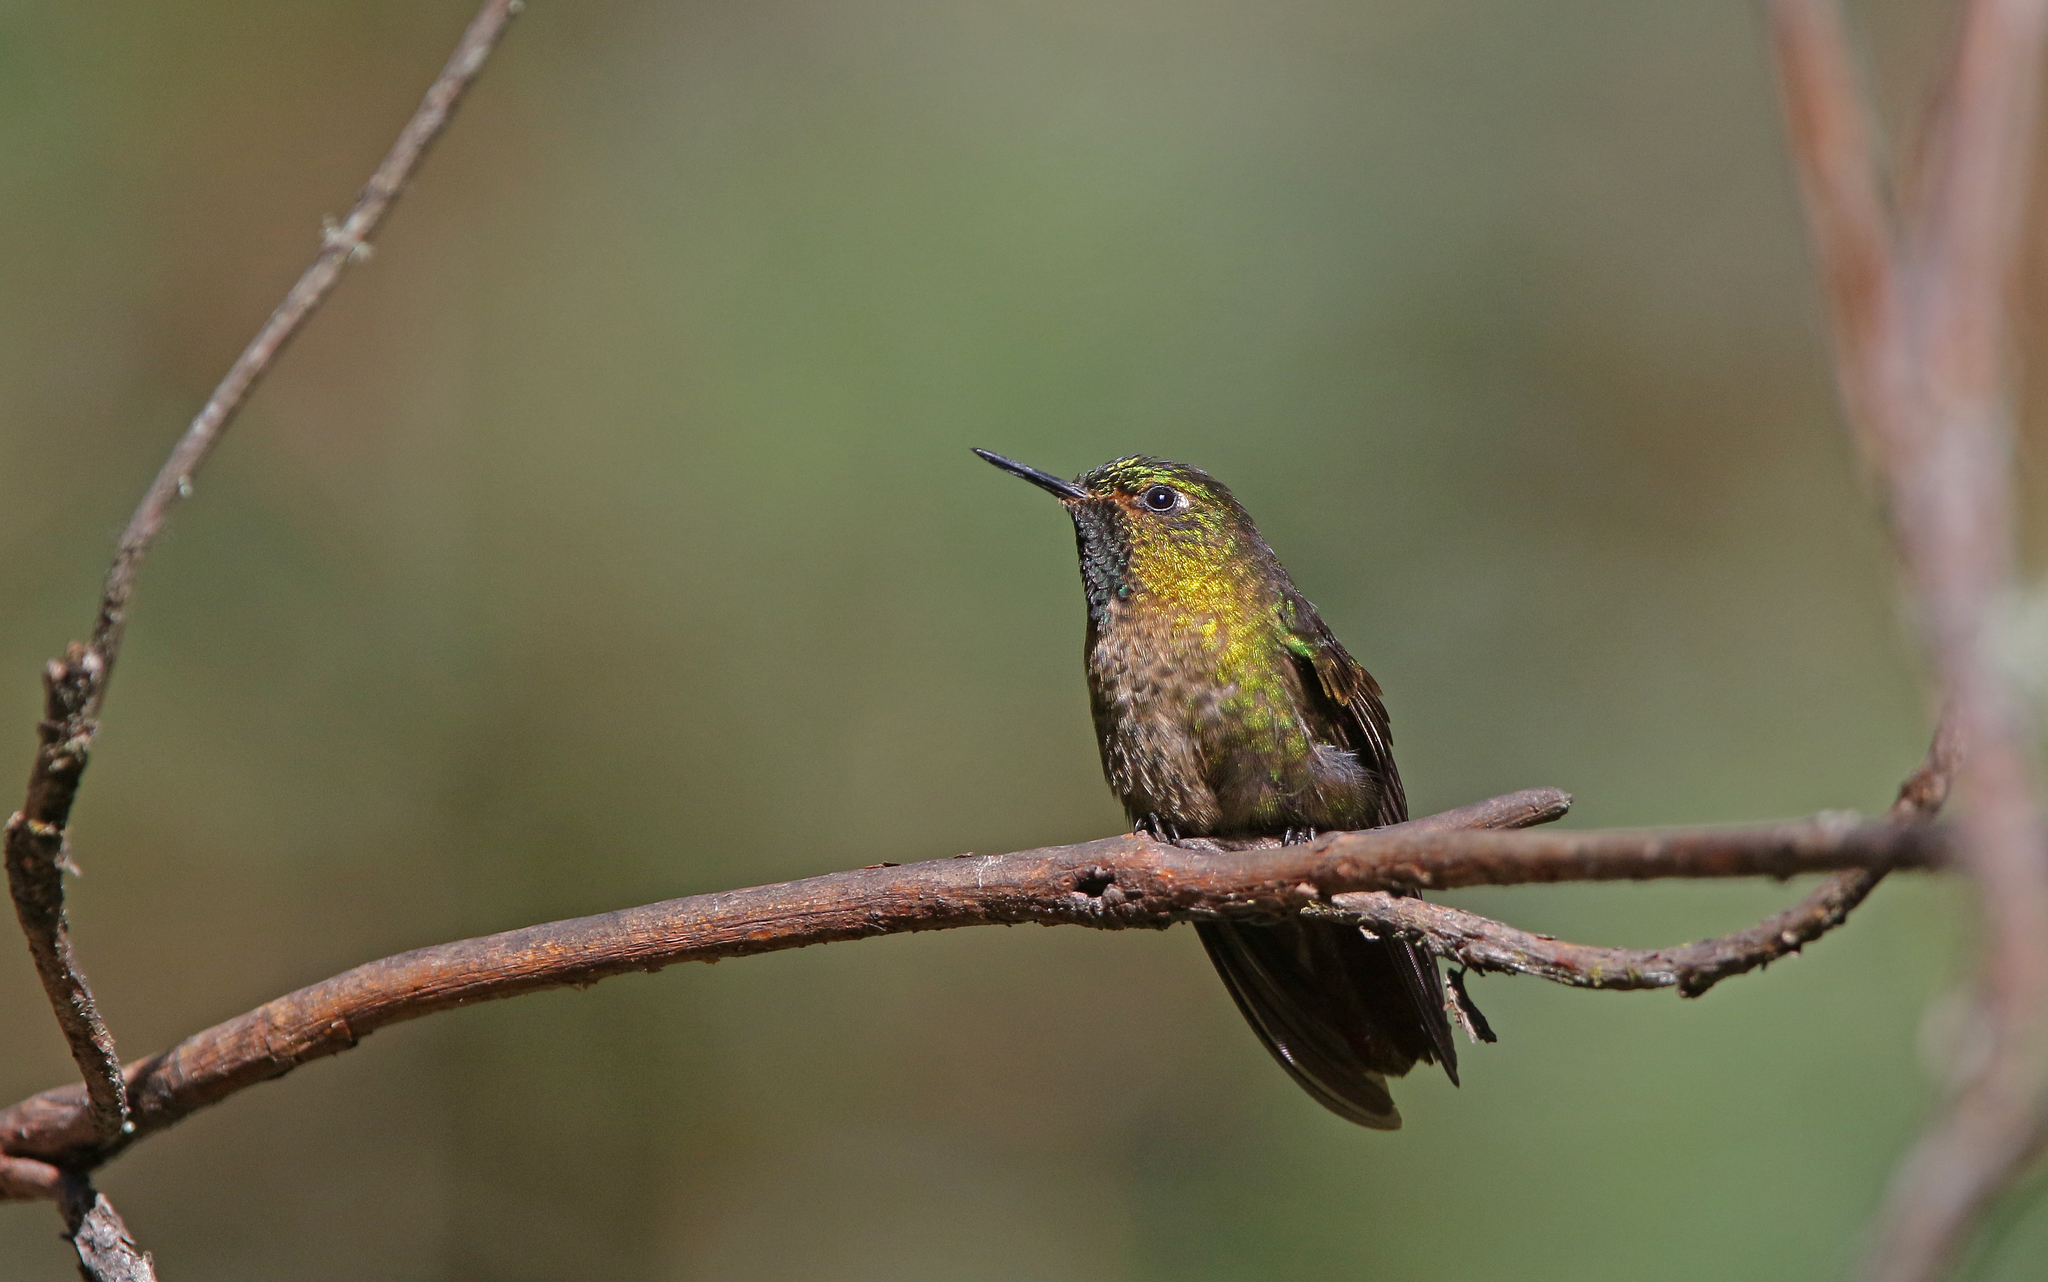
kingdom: Animalia
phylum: Chordata
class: Aves
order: Apodiformes
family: Trochilidae
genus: Metallura
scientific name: Metallura tyrianthina
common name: Tyrian metaltail
